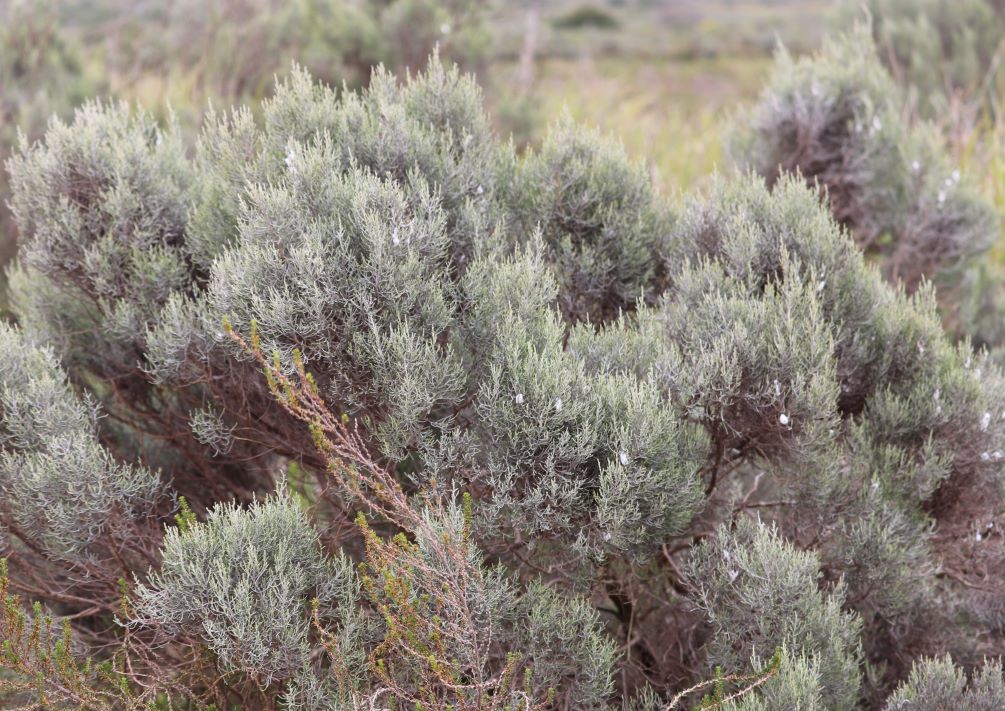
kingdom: Plantae
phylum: Tracheophyta
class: Magnoliopsida
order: Asterales
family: Asteraceae
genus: Dicerothamnus
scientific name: Dicerothamnus rhinocerotis
